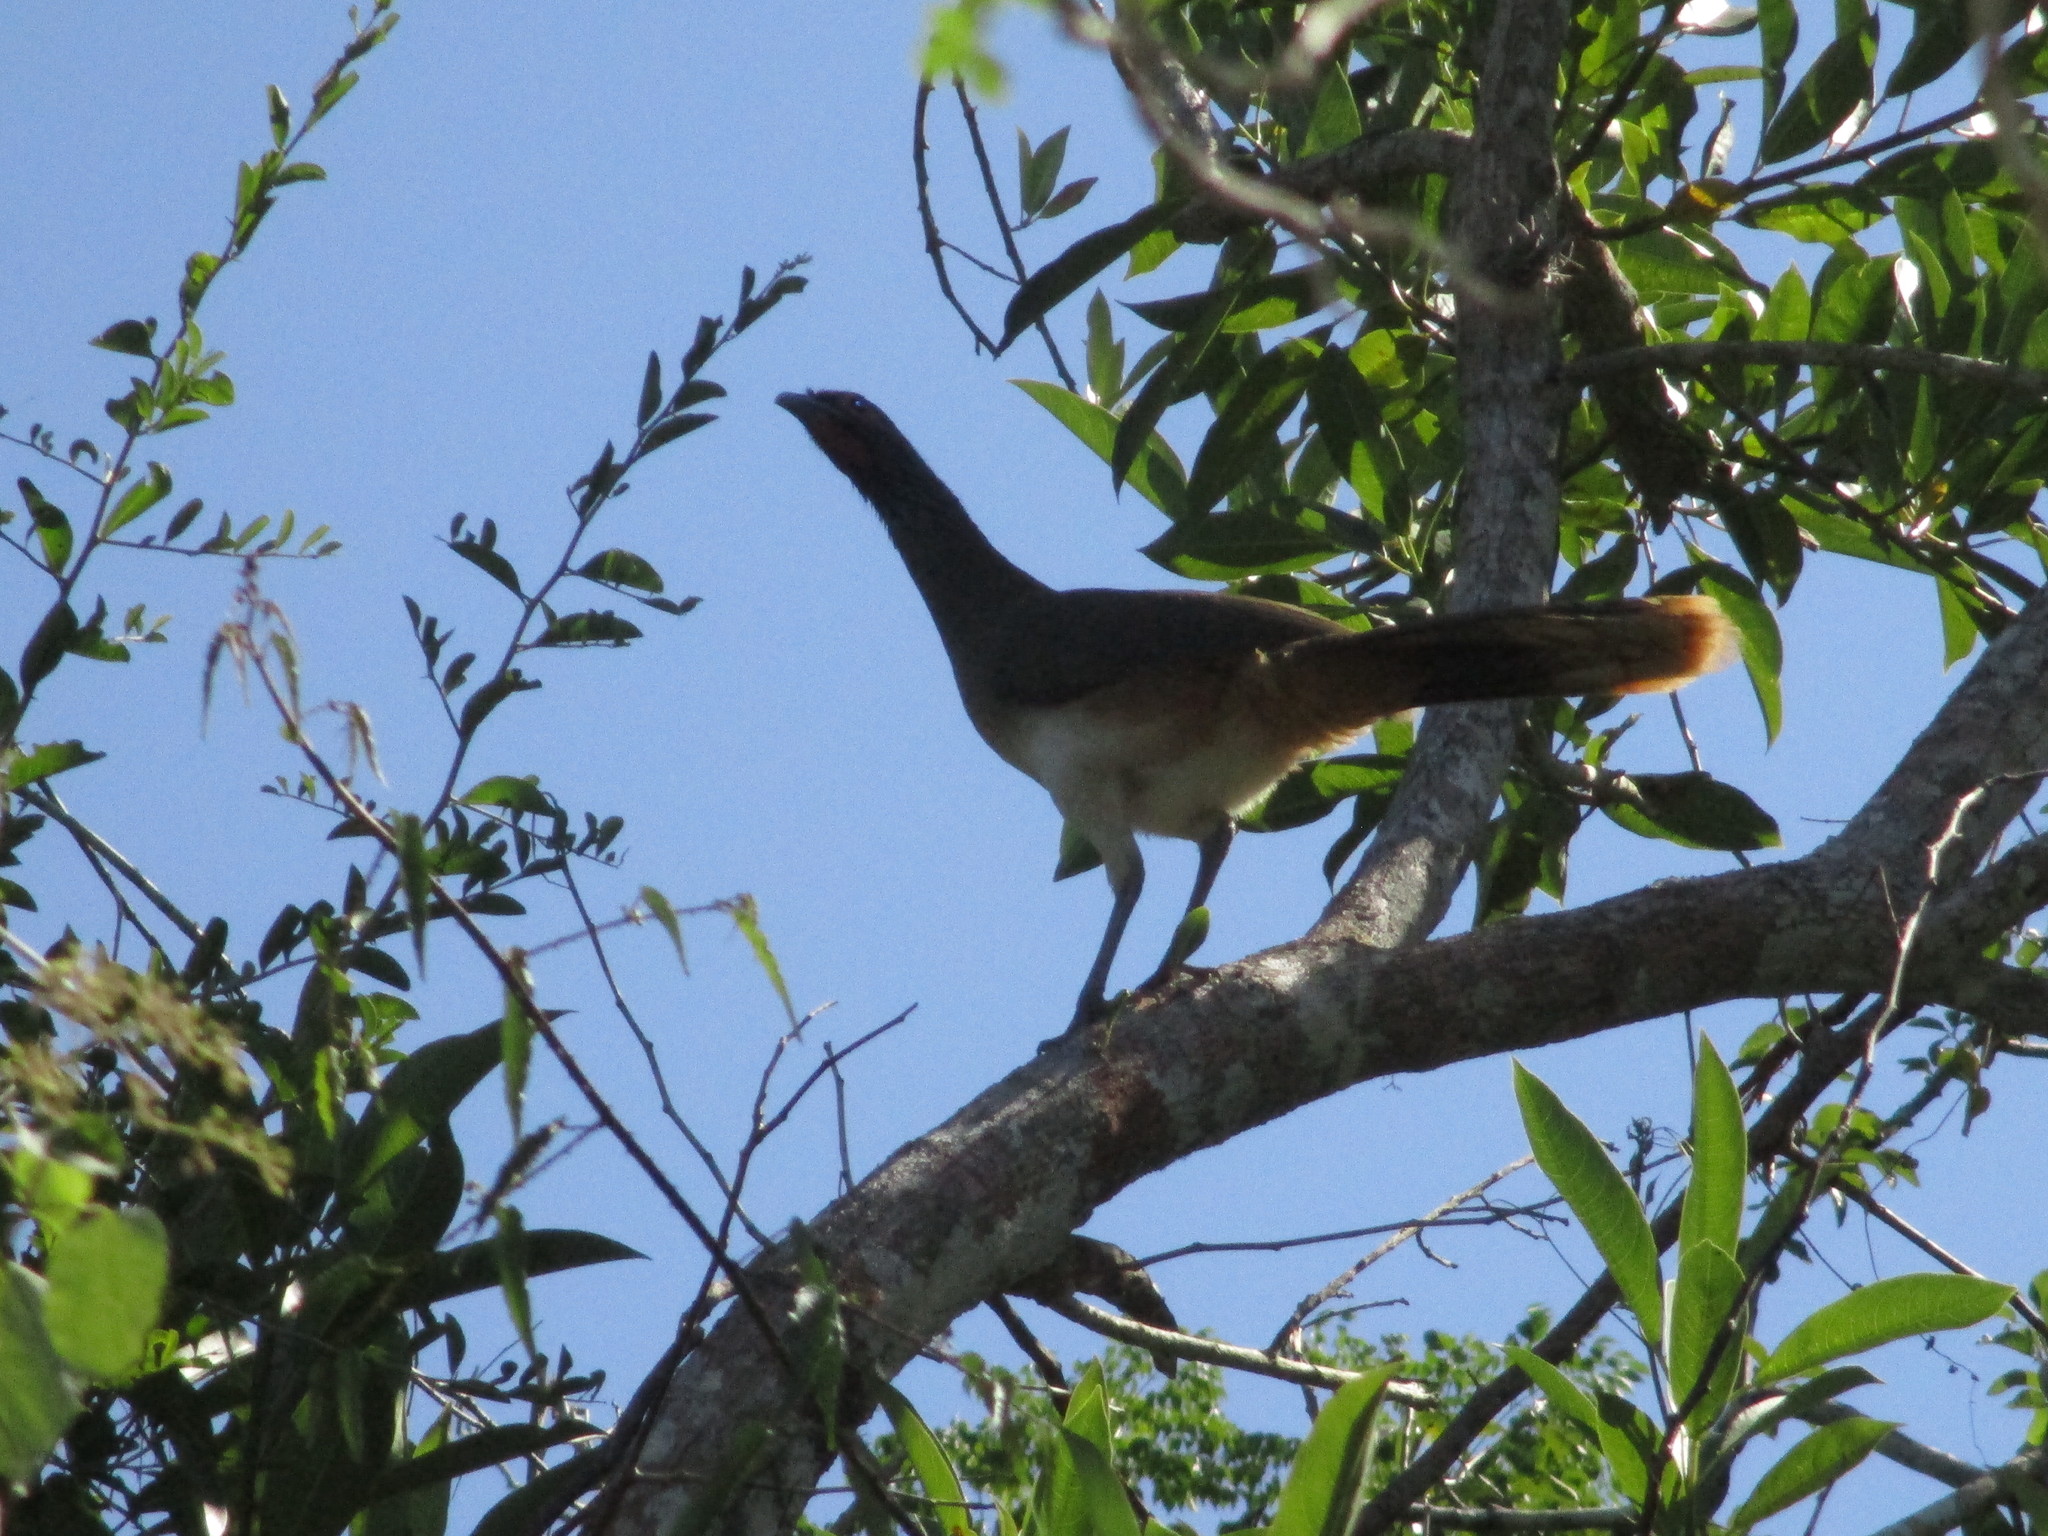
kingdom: Animalia
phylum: Chordata
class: Aves
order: Galliformes
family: Cracidae
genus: Ortalis
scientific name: Ortalis poliocephala
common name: West mexican chachalaca
